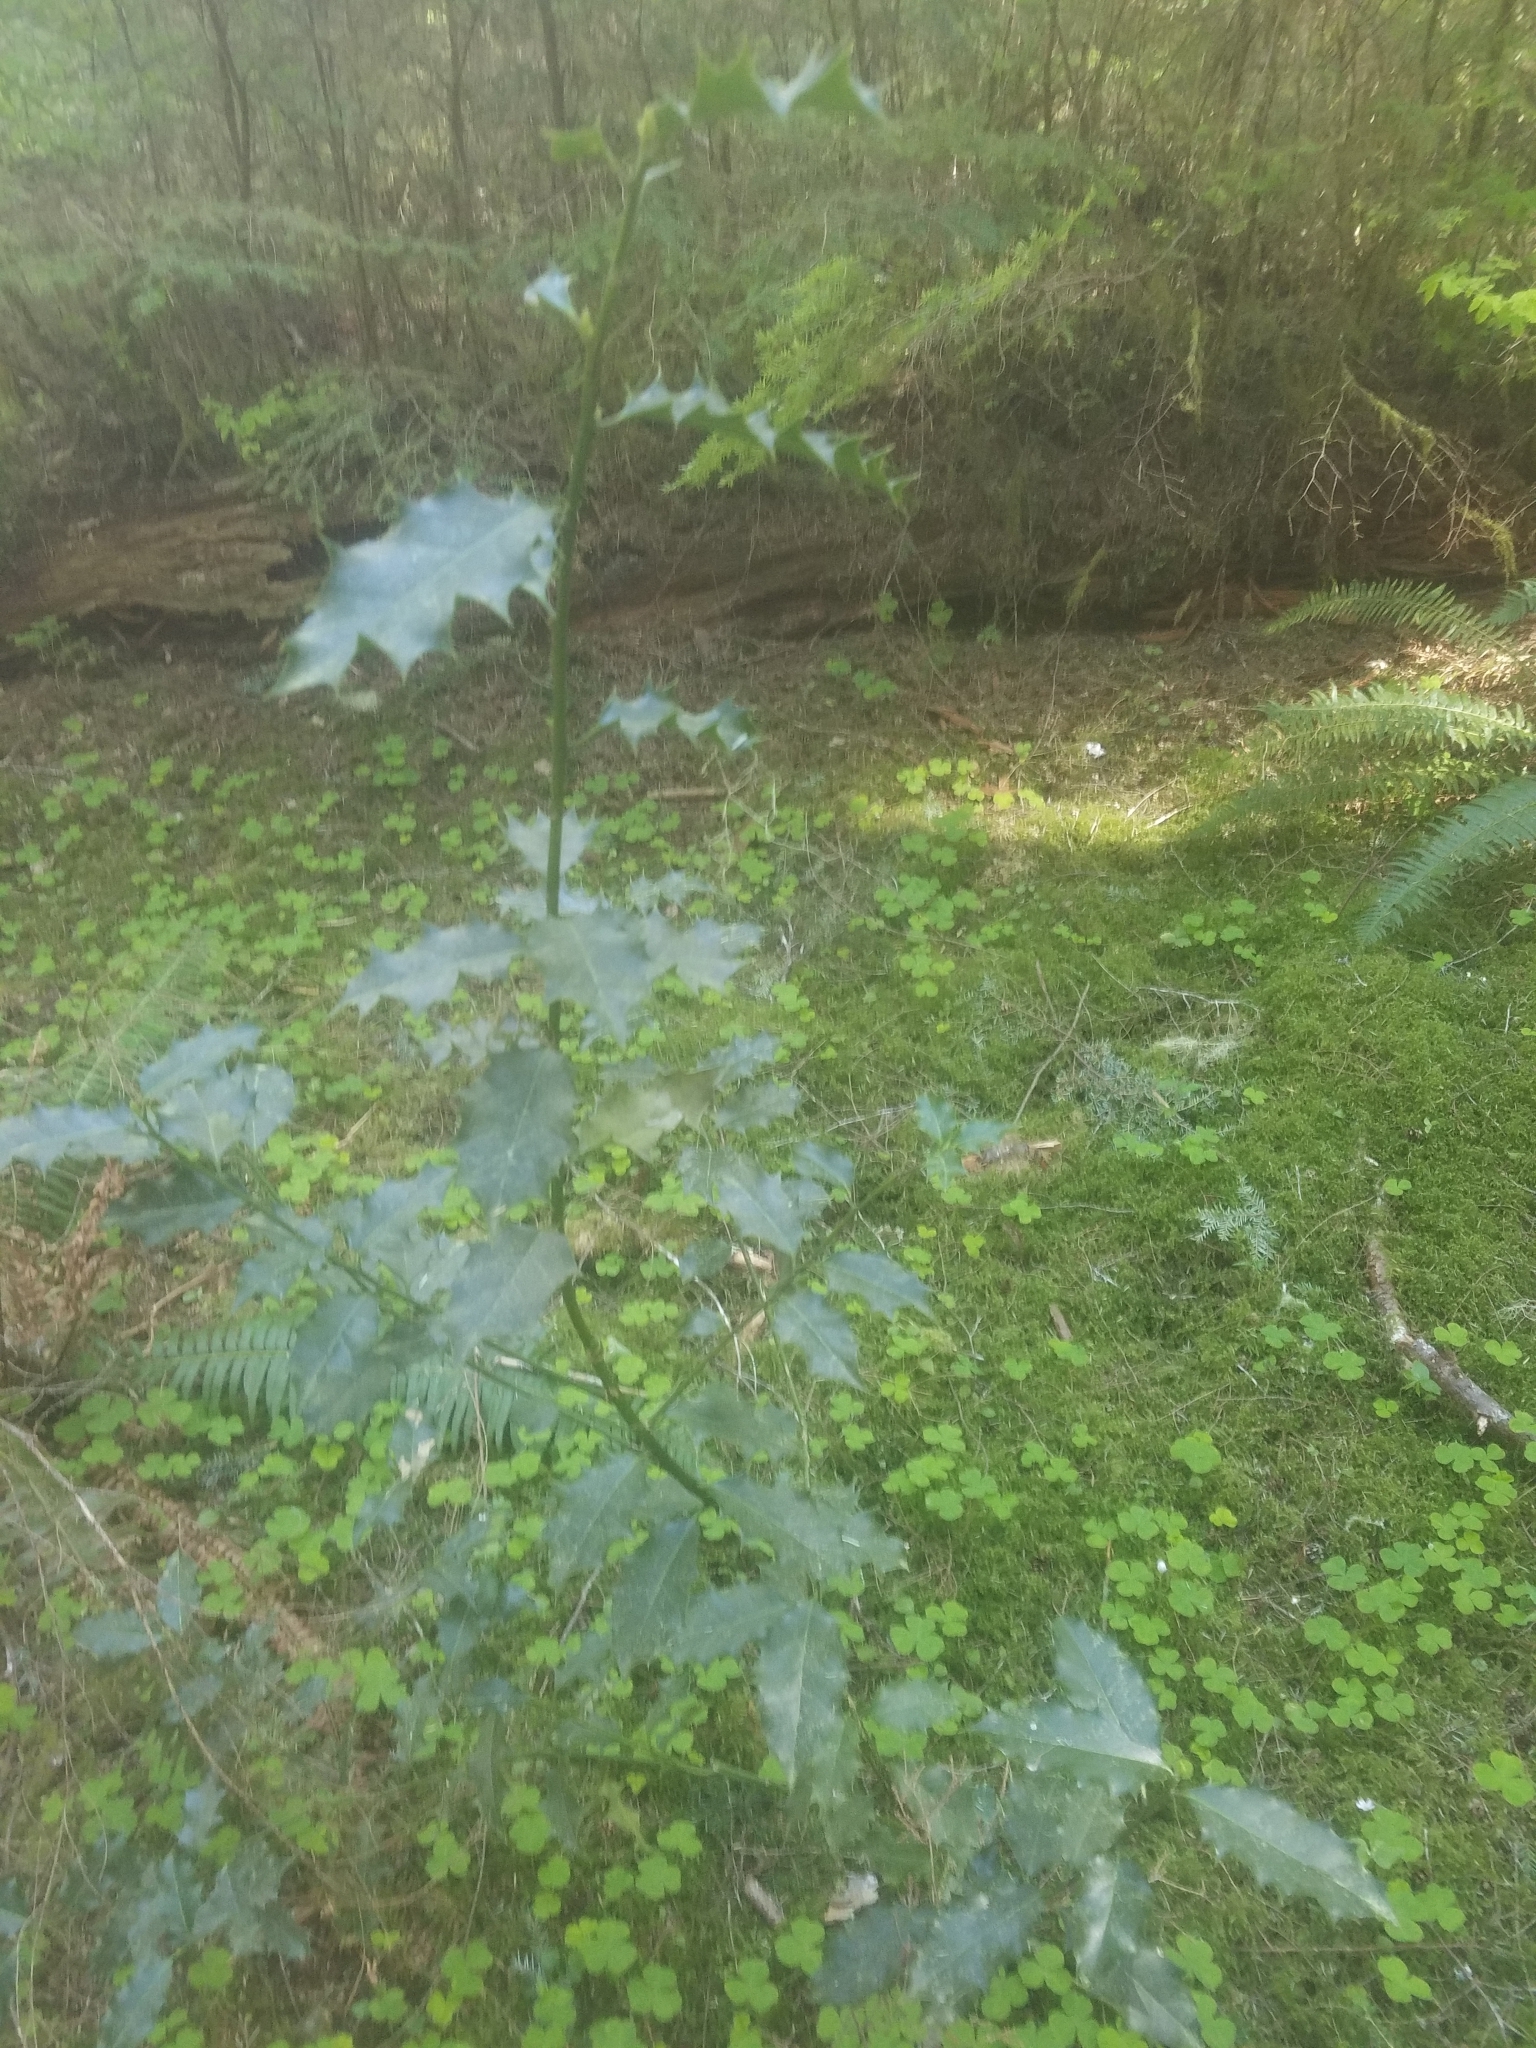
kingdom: Plantae
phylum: Tracheophyta
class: Magnoliopsida
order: Aquifoliales
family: Aquifoliaceae
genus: Ilex
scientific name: Ilex aquifolium
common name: English holly
